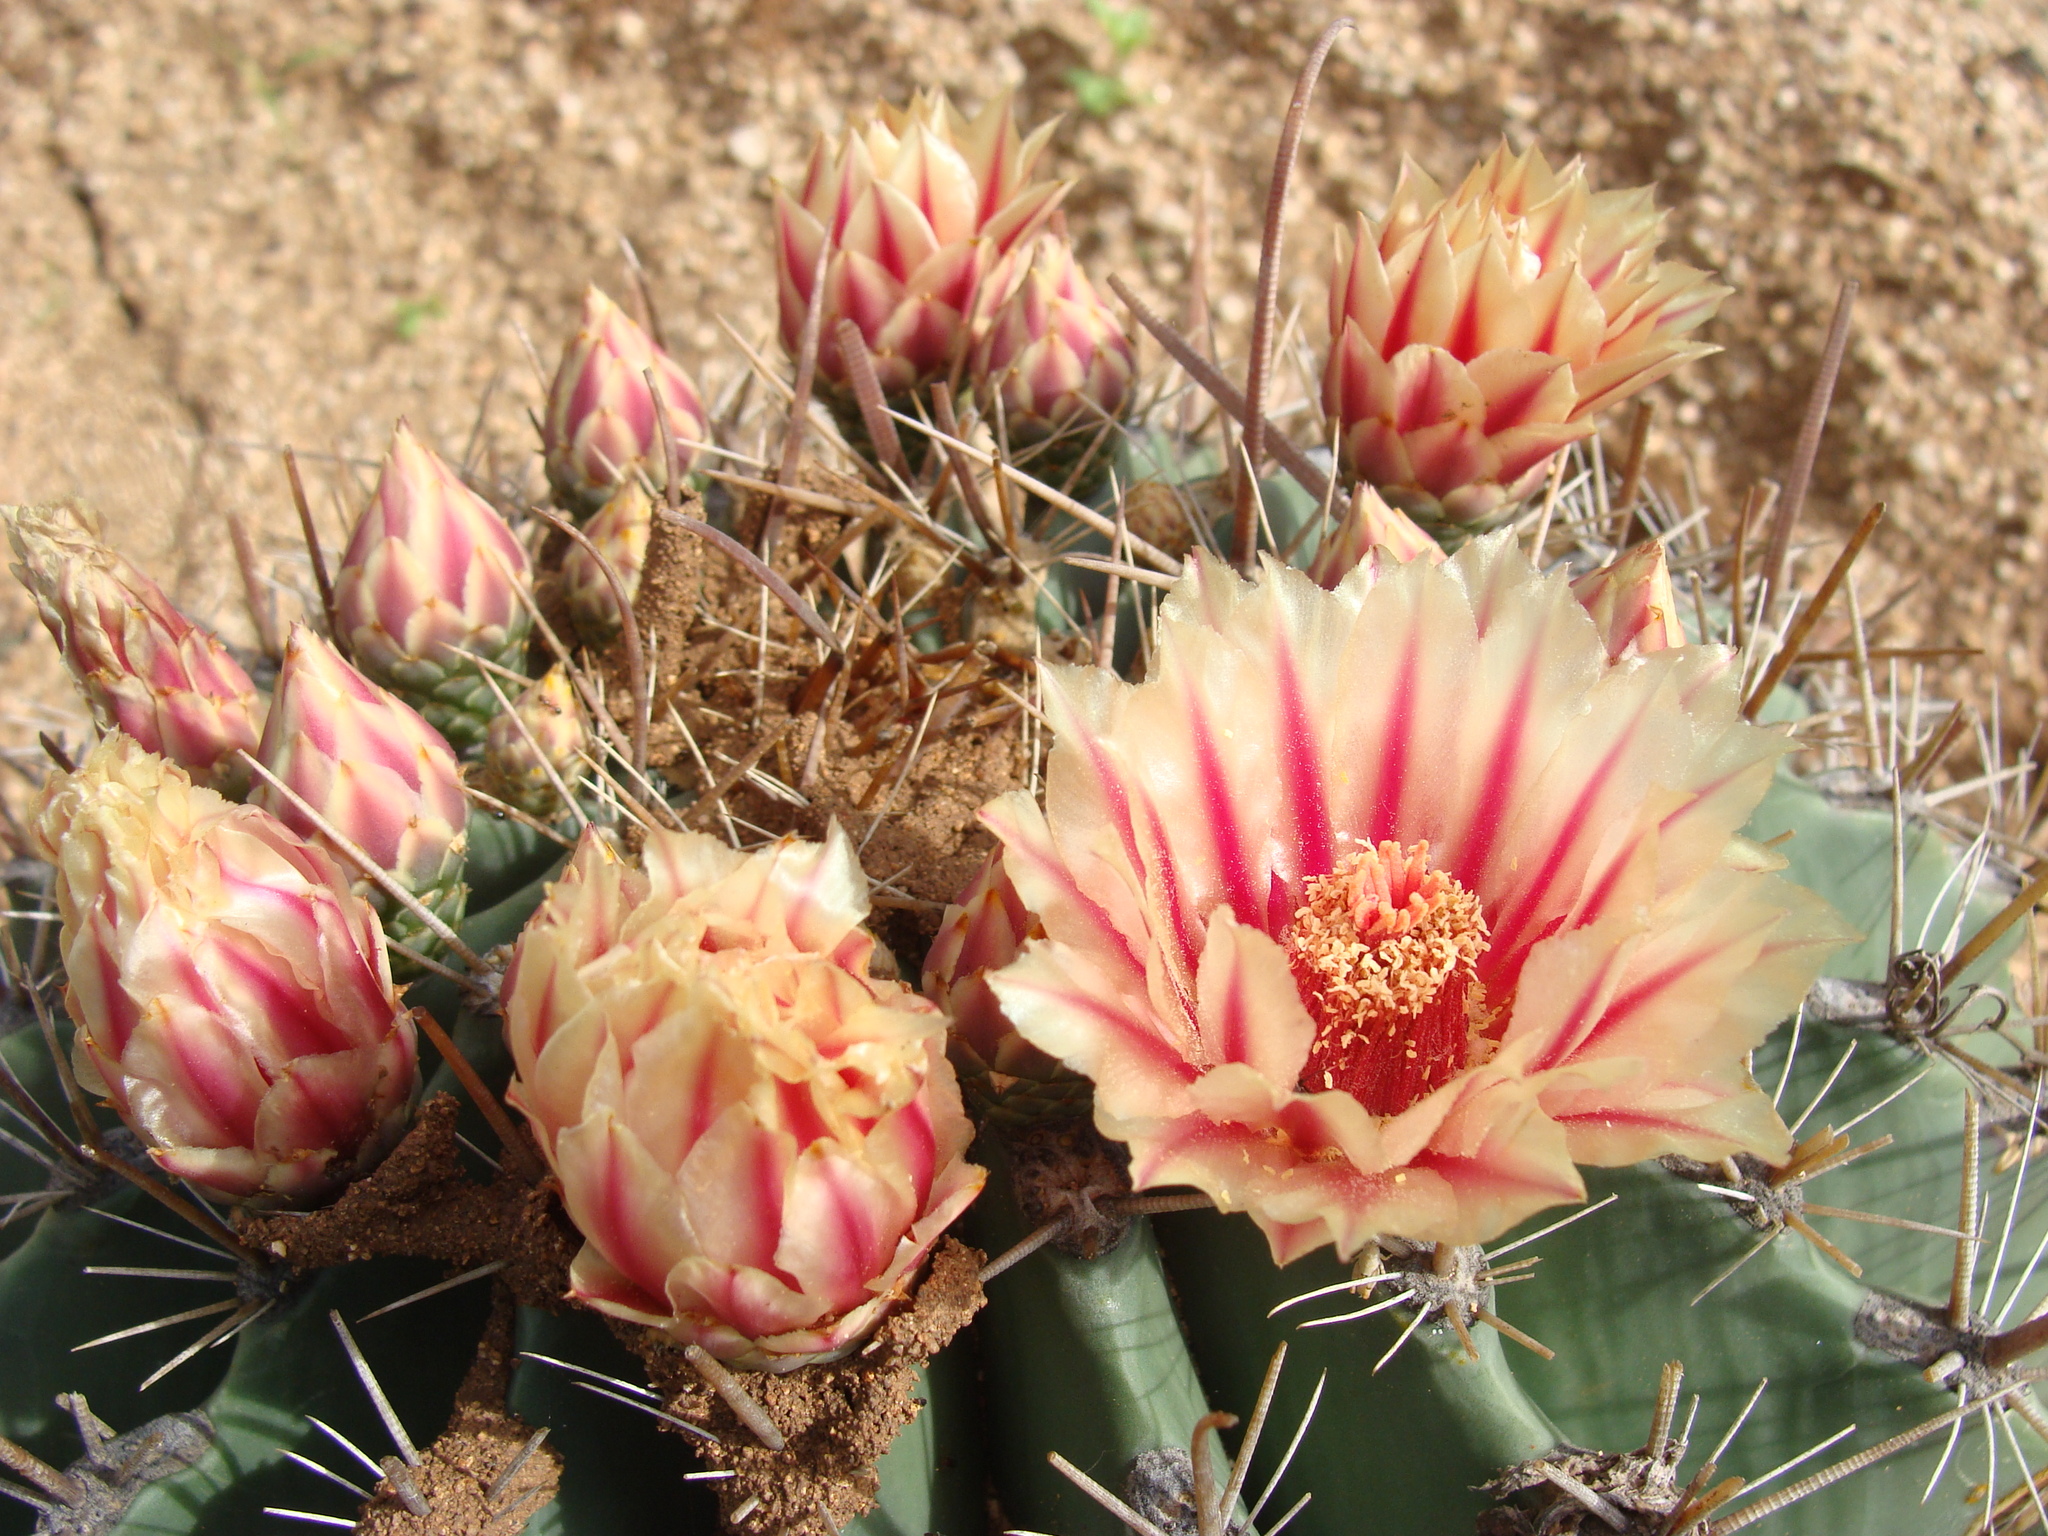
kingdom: Plantae
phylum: Tracheophyta
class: Magnoliopsida
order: Caryophyllales
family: Cactaceae
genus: Ferocactus
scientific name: Ferocactus townsendianus
